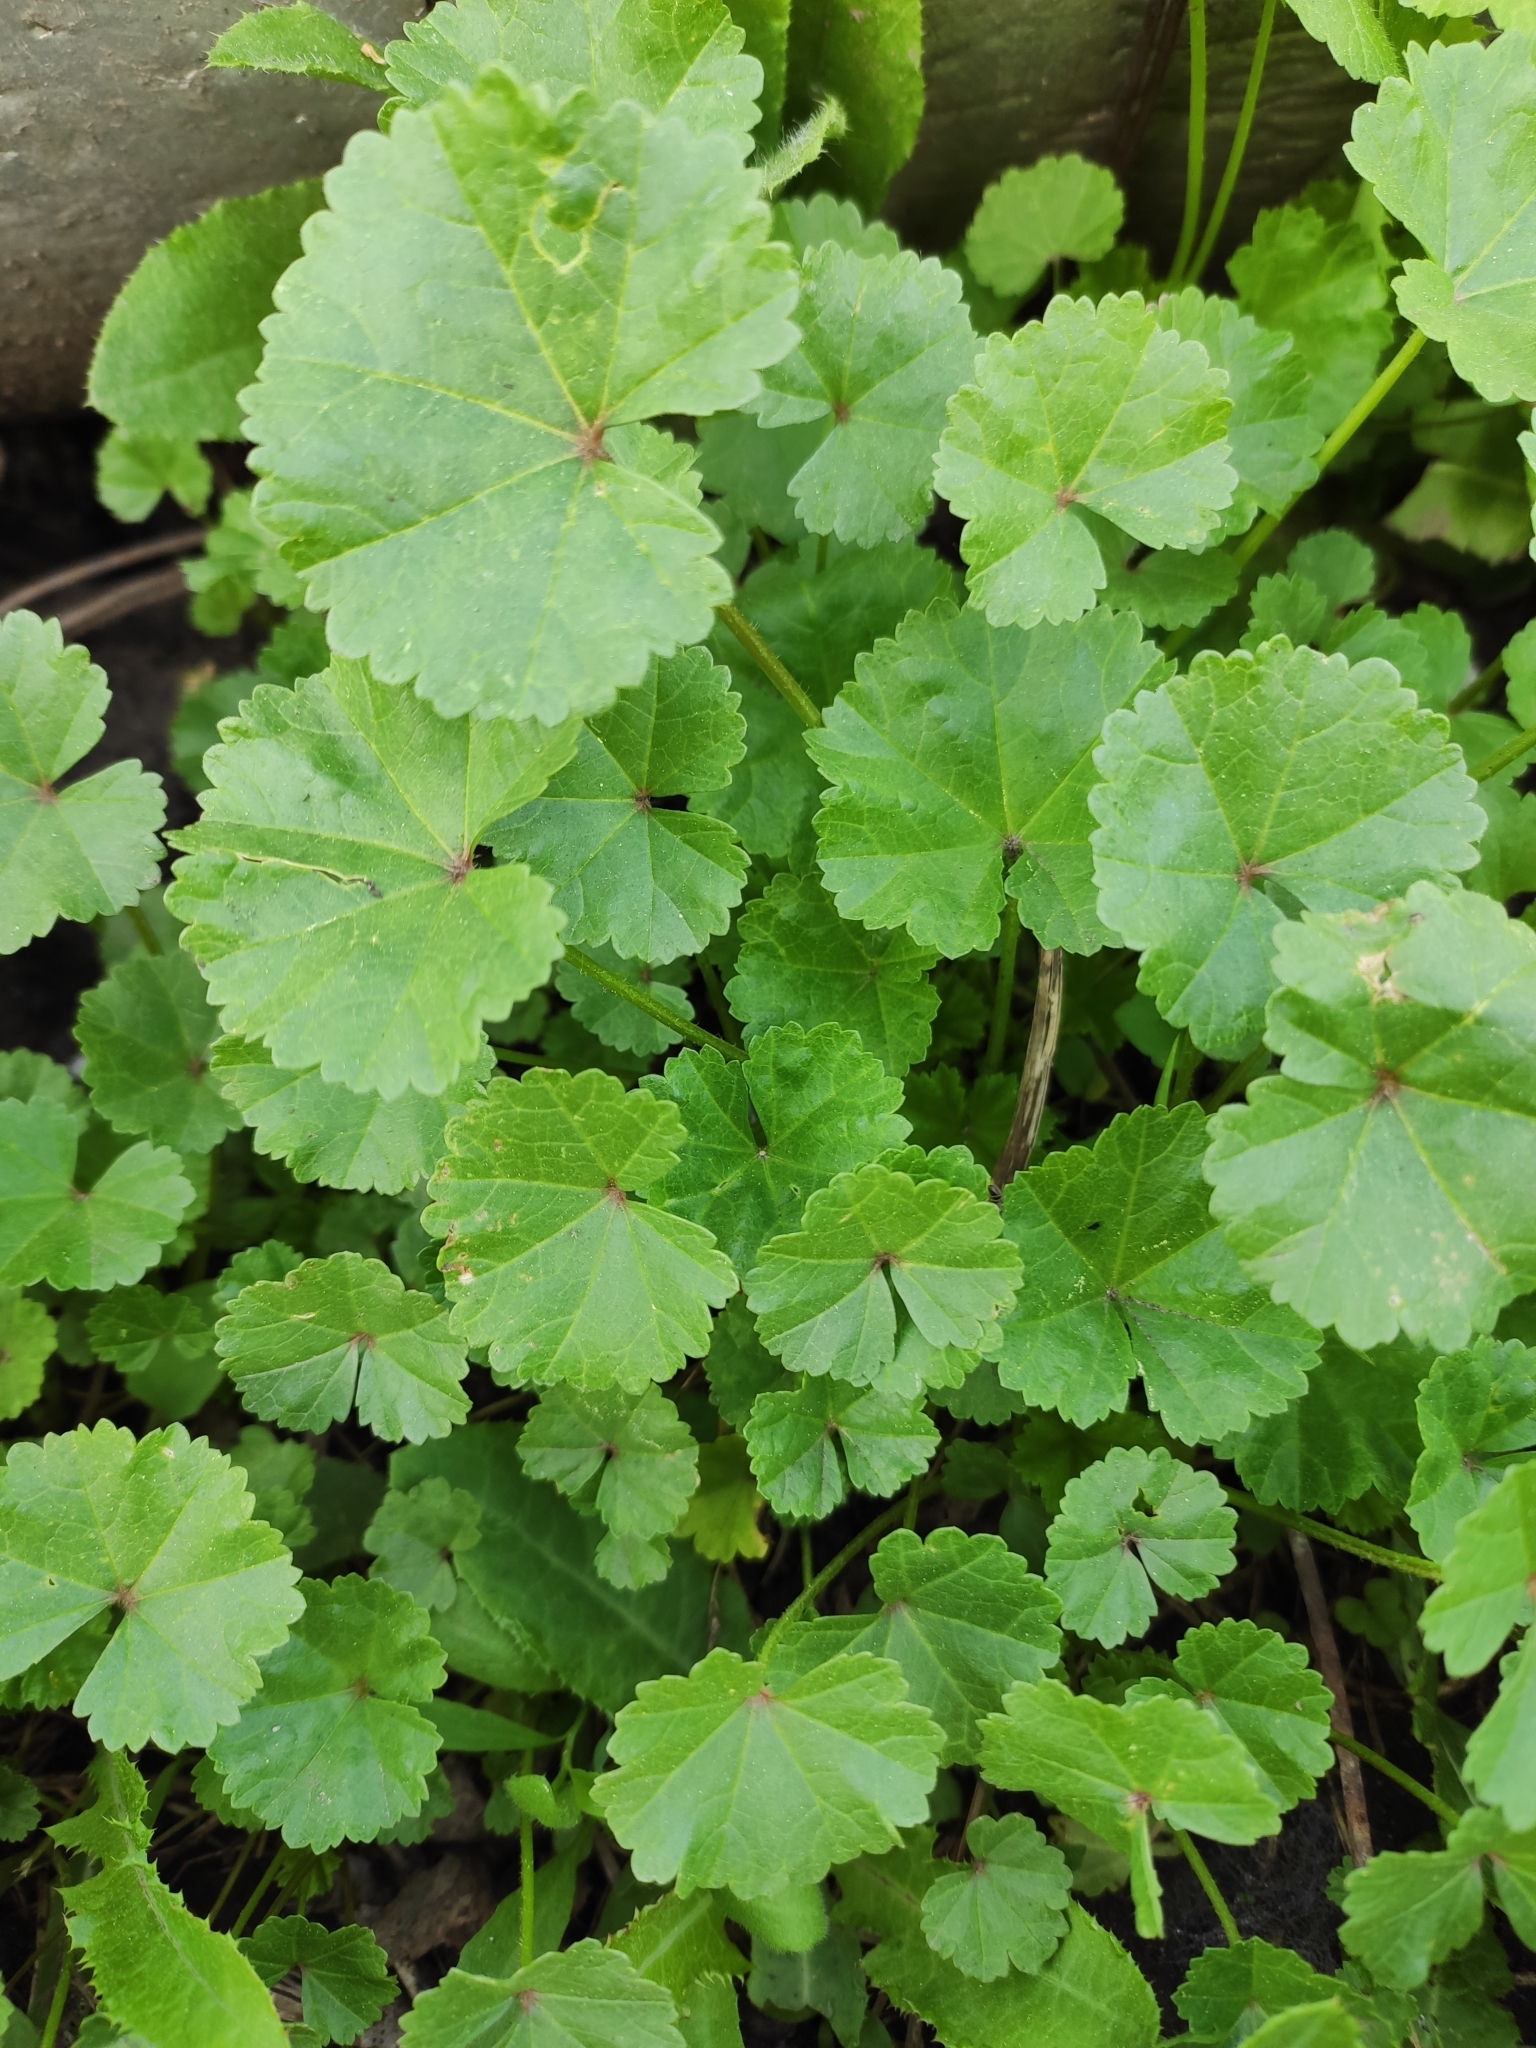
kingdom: Plantae
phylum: Tracheophyta
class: Magnoliopsida
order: Malvales
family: Malvaceae
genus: Malva
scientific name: Malva pusilla
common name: Small mallow
